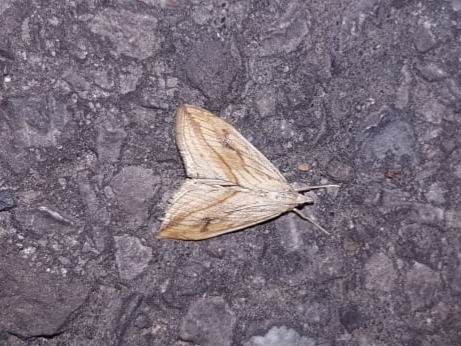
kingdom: Animalia
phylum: Arthropoda
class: Insecta
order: Lepidoptera
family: Crambidae
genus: Evergestis
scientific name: Evergestis forficalis
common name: Garden pebble
